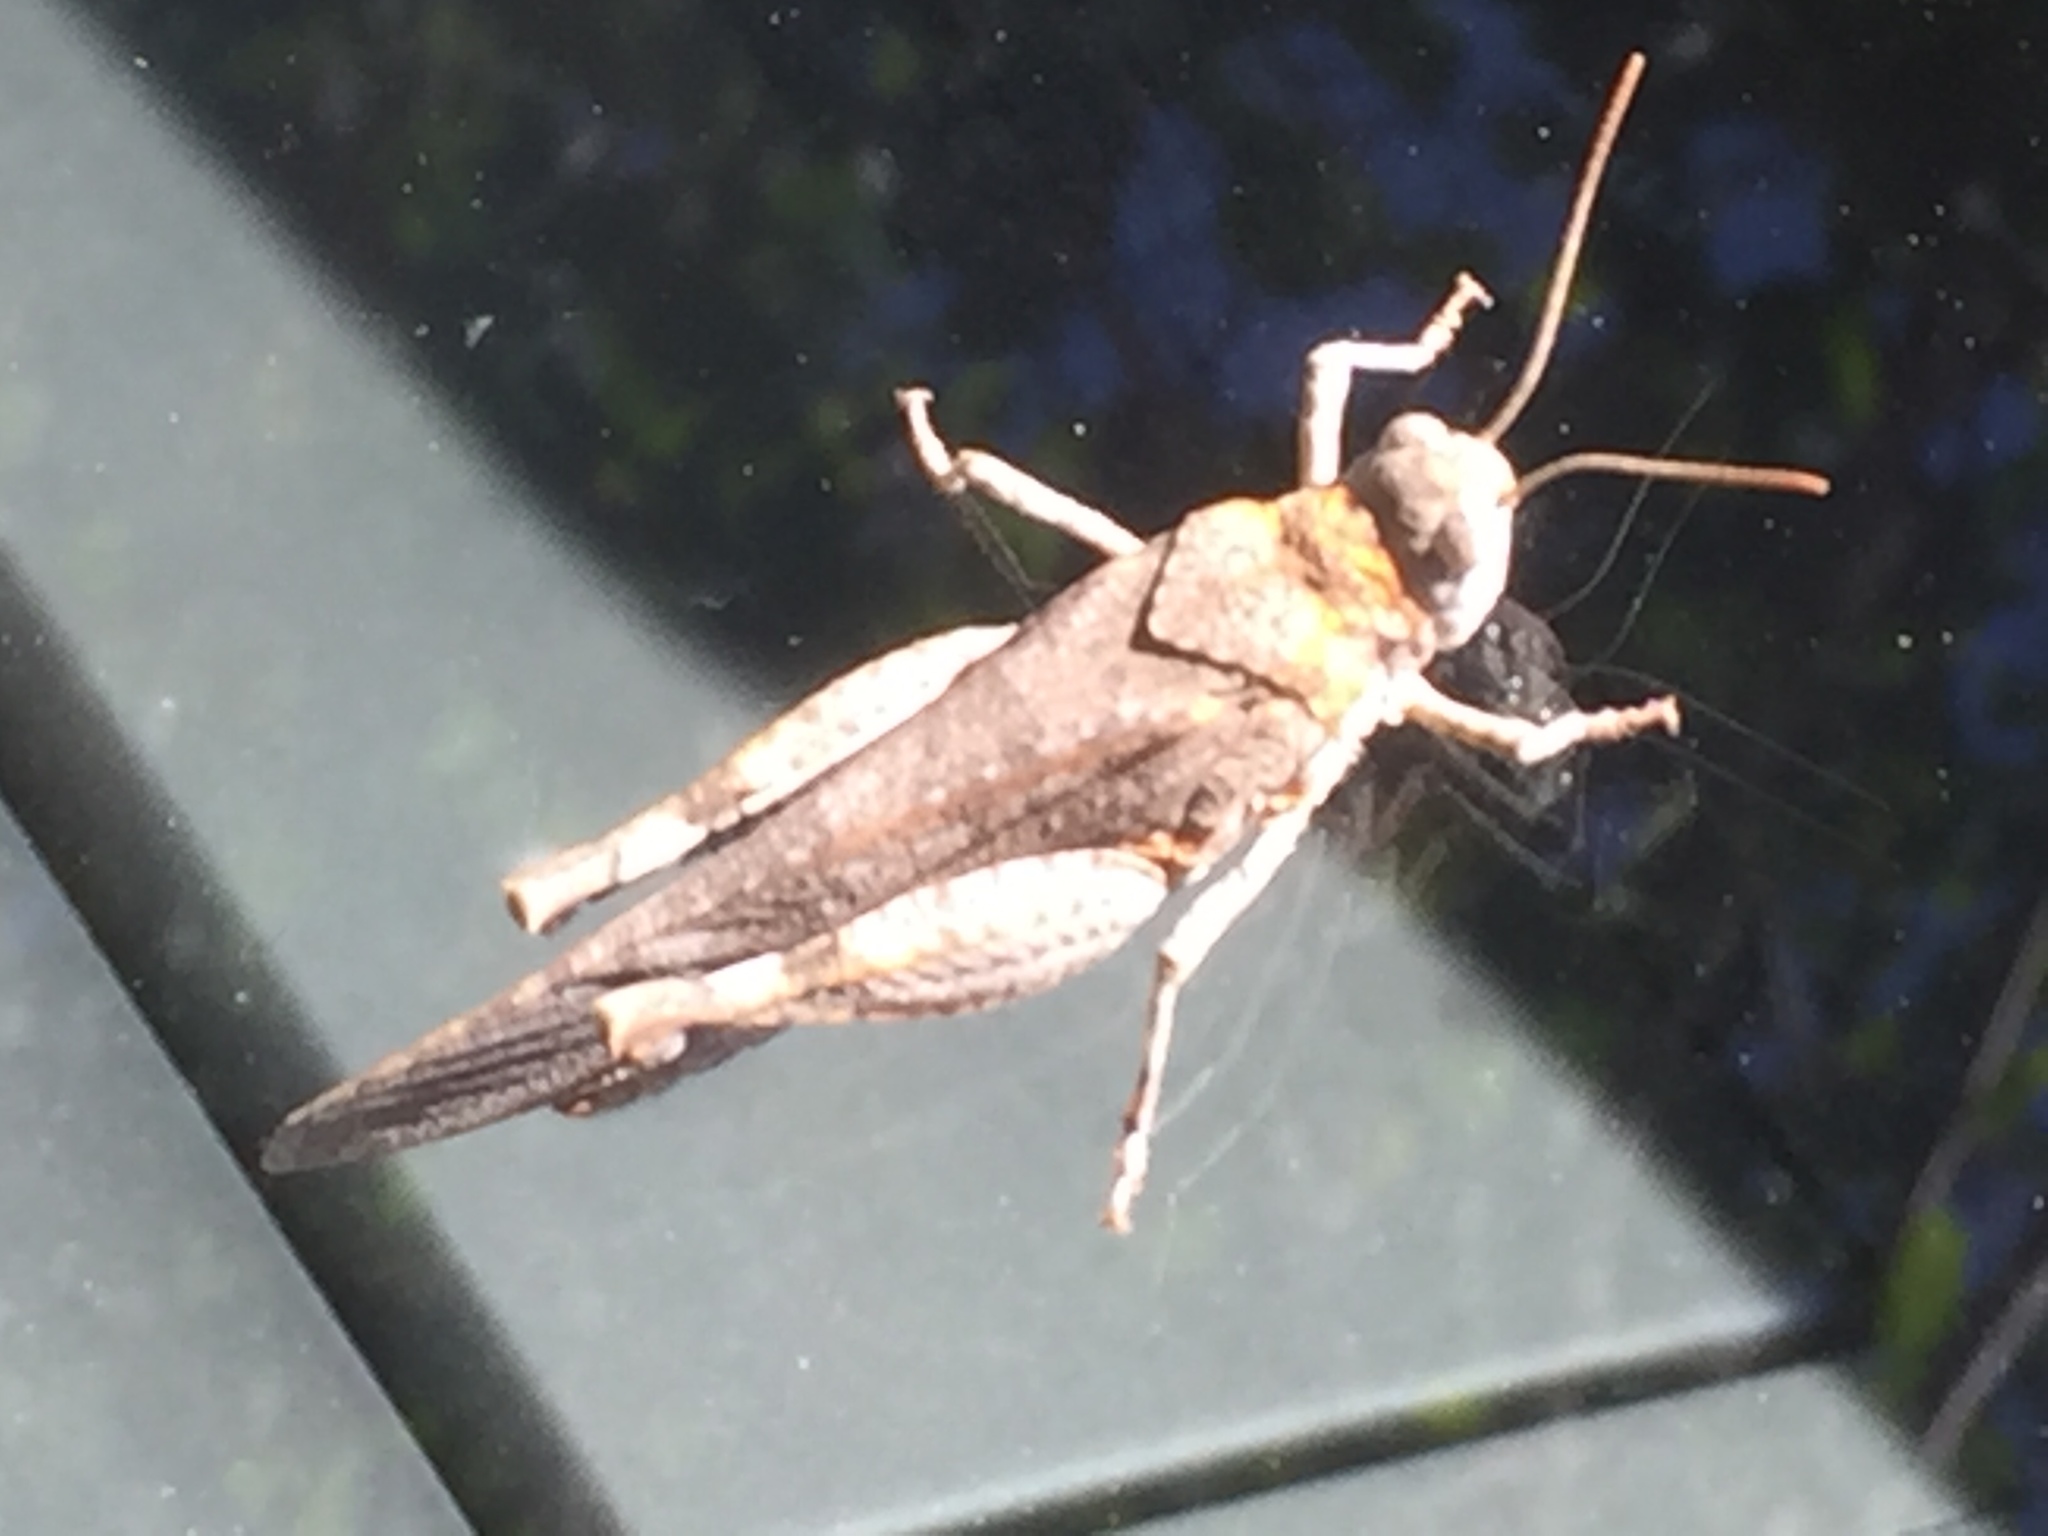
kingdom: Animalia
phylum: Arthropoda
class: Insecta
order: Orthoptera
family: Acrididae
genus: Oedipoda
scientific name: Oedipoda caerulescens
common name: Blue-winged grasshopper
